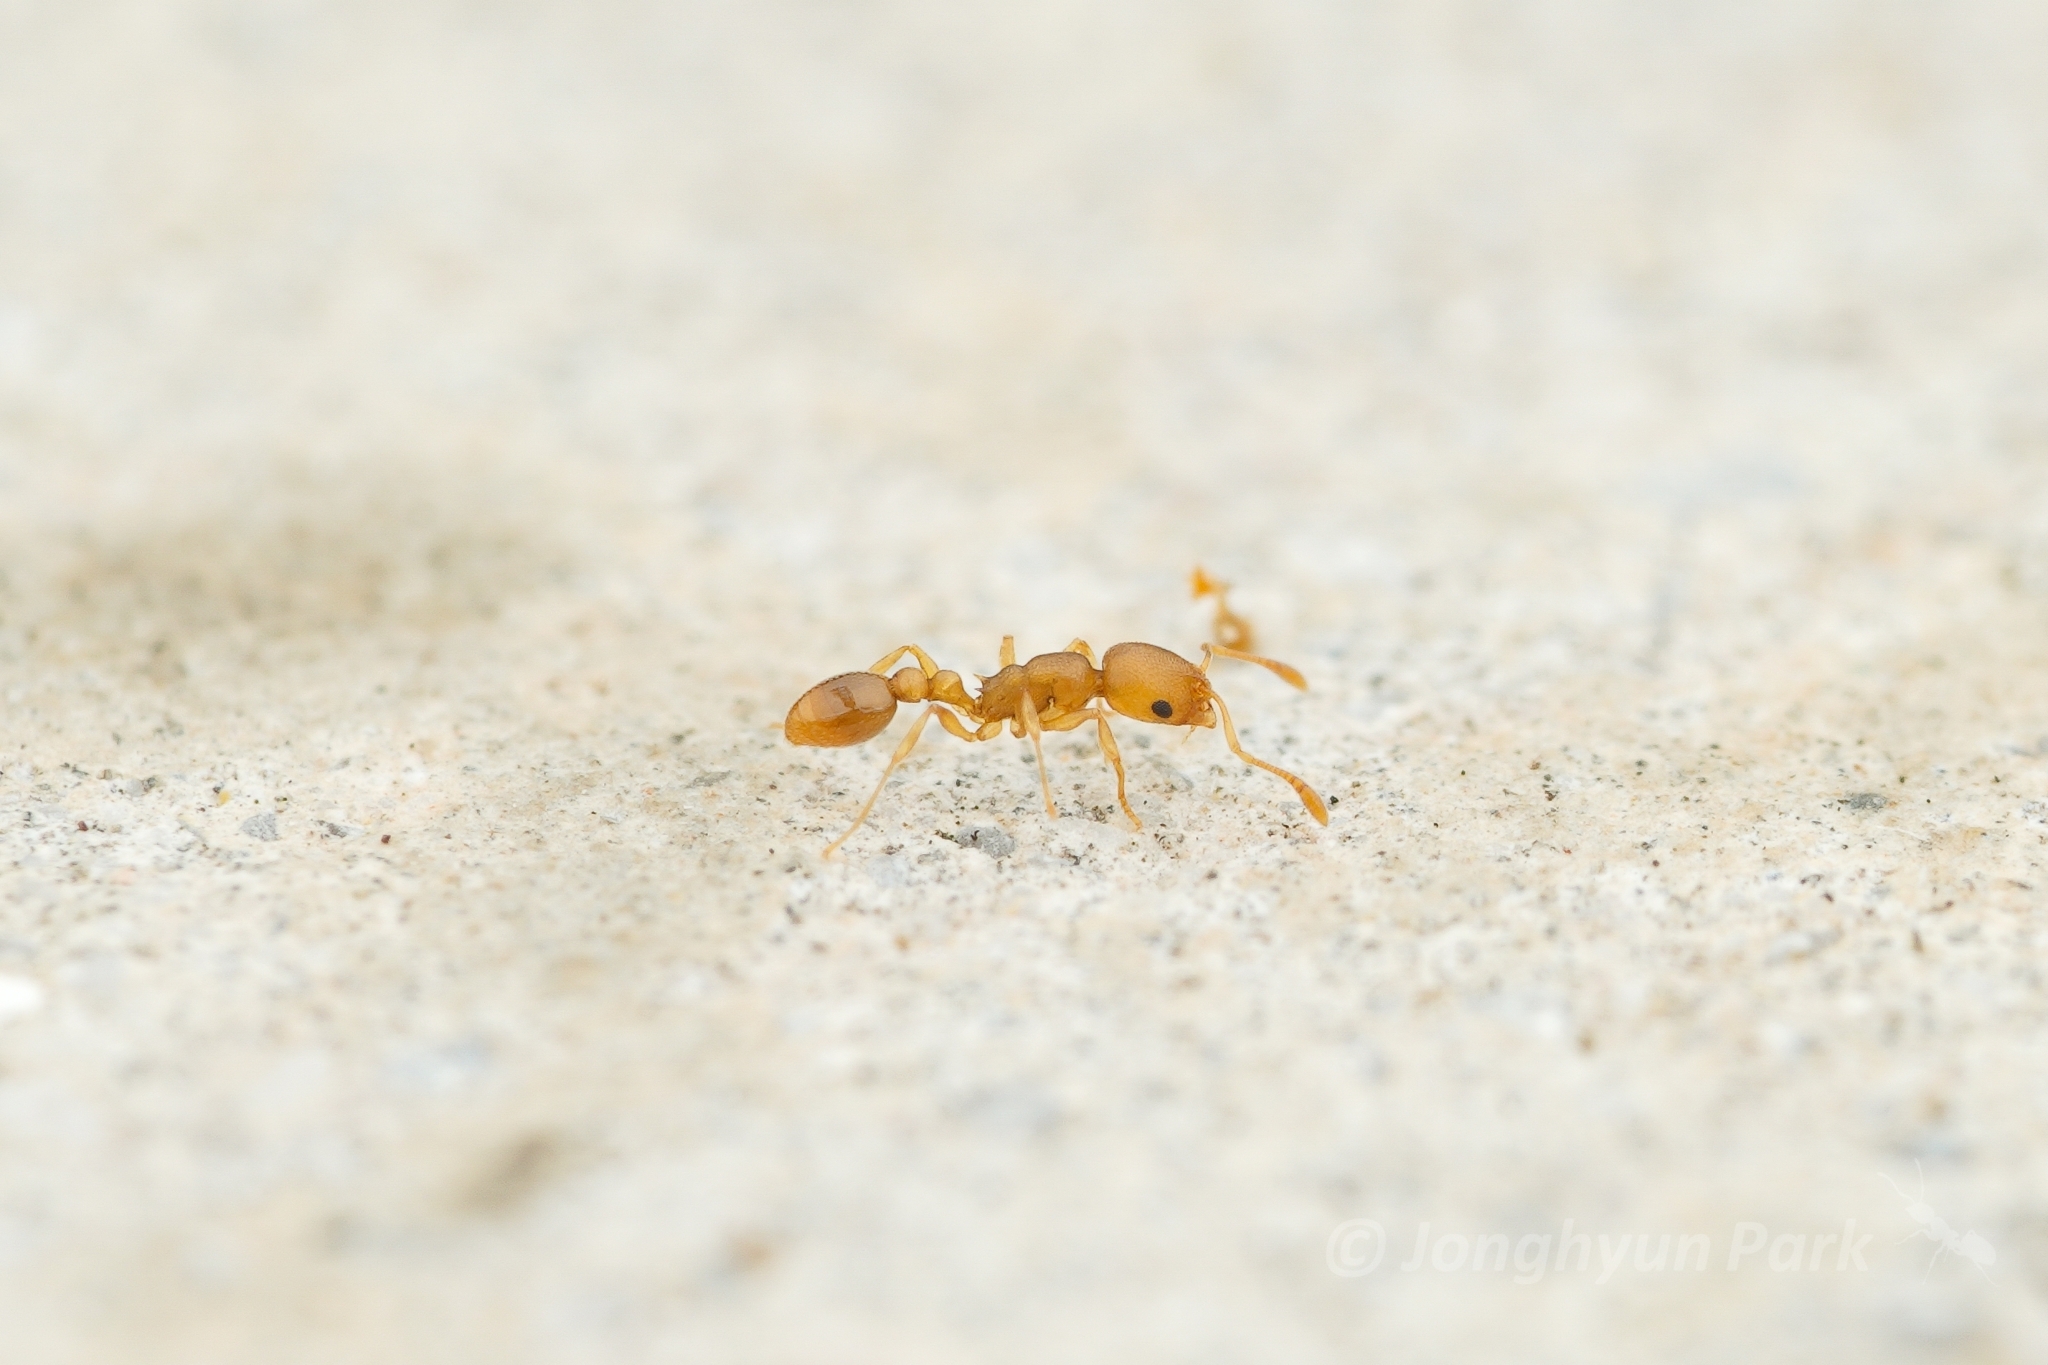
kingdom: Animalia
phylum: Arthropoda
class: Insecta
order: Hymenoptera
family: Formicidae
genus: Cardiocondyla
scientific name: Cardiocondyla wroughtonii
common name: Yellow sneaking ant
